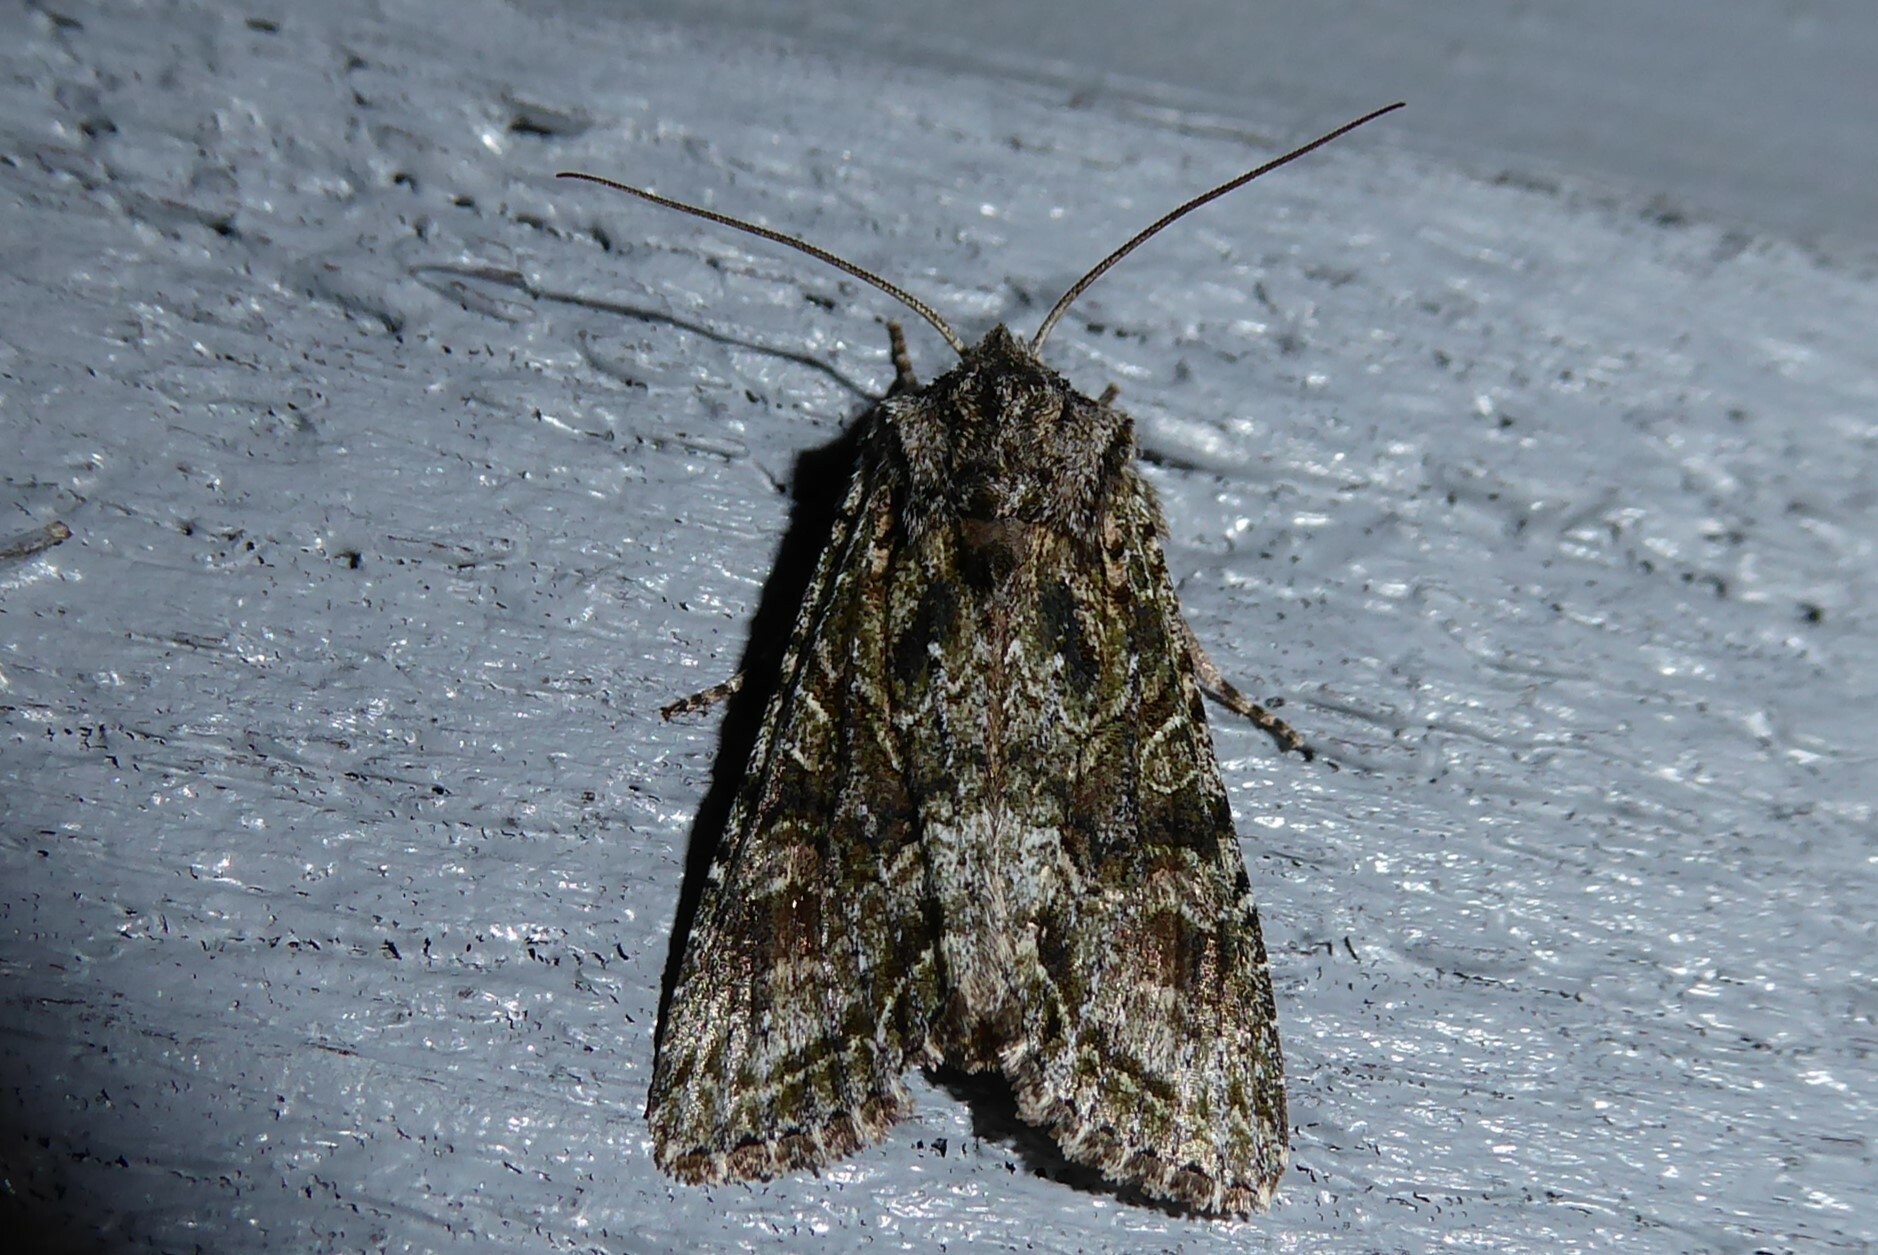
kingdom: Animalia
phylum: Arthropoda
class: Insecta
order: Lepidoptera
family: Noctuidae
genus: Ichneutica
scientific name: Ichneutica mutans
